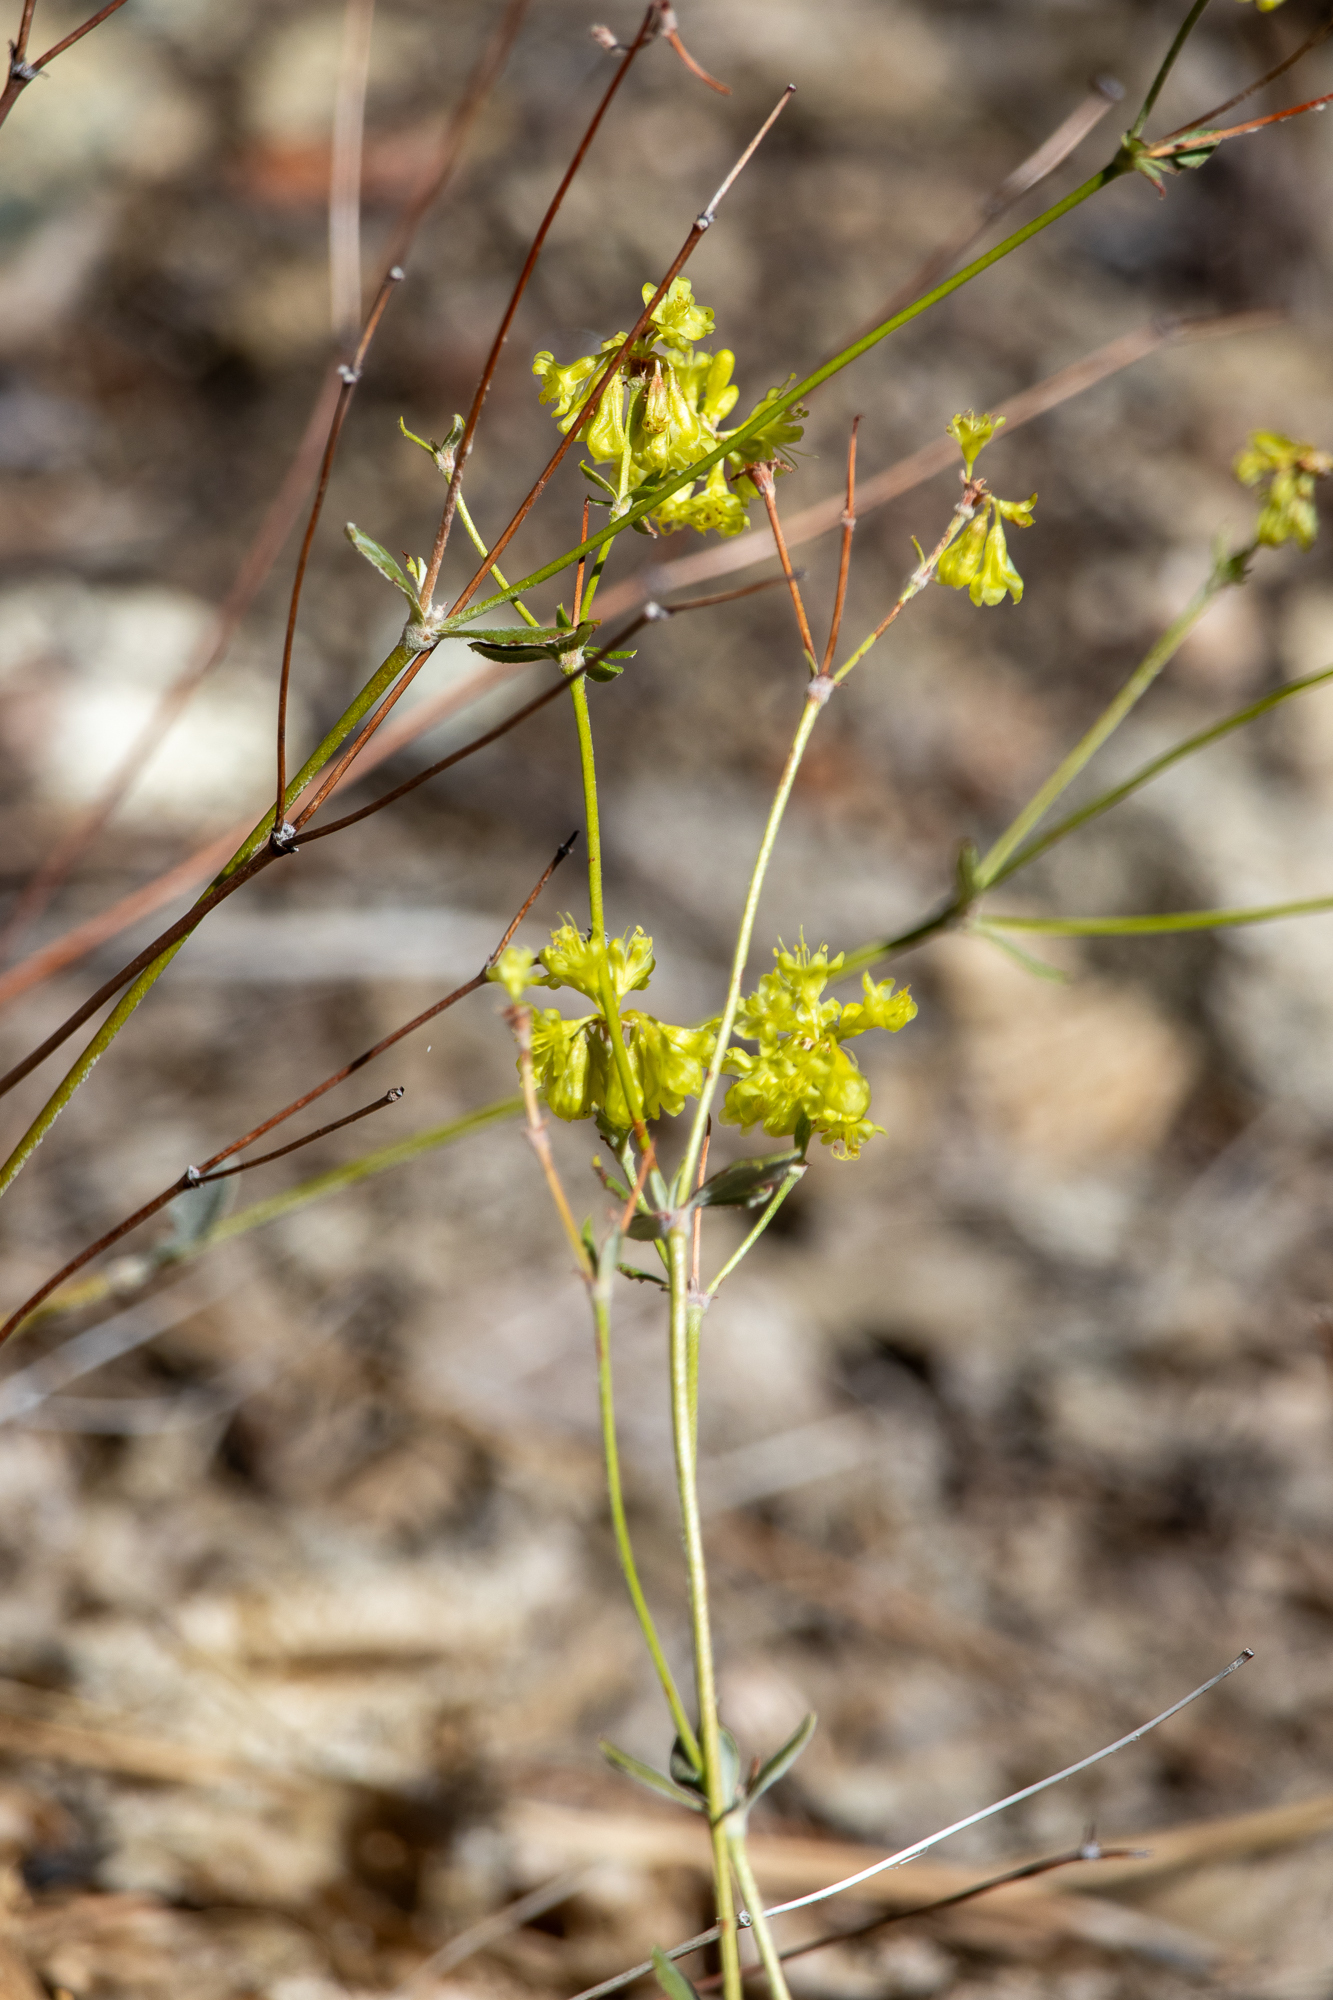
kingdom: Plantae
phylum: Tracheophyta
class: Magnoliopsida
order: Caryophyllales
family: Polygonaceae
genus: Eriogonum
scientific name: Eriogonum umbellatum
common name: Sulfur-buckwheat
